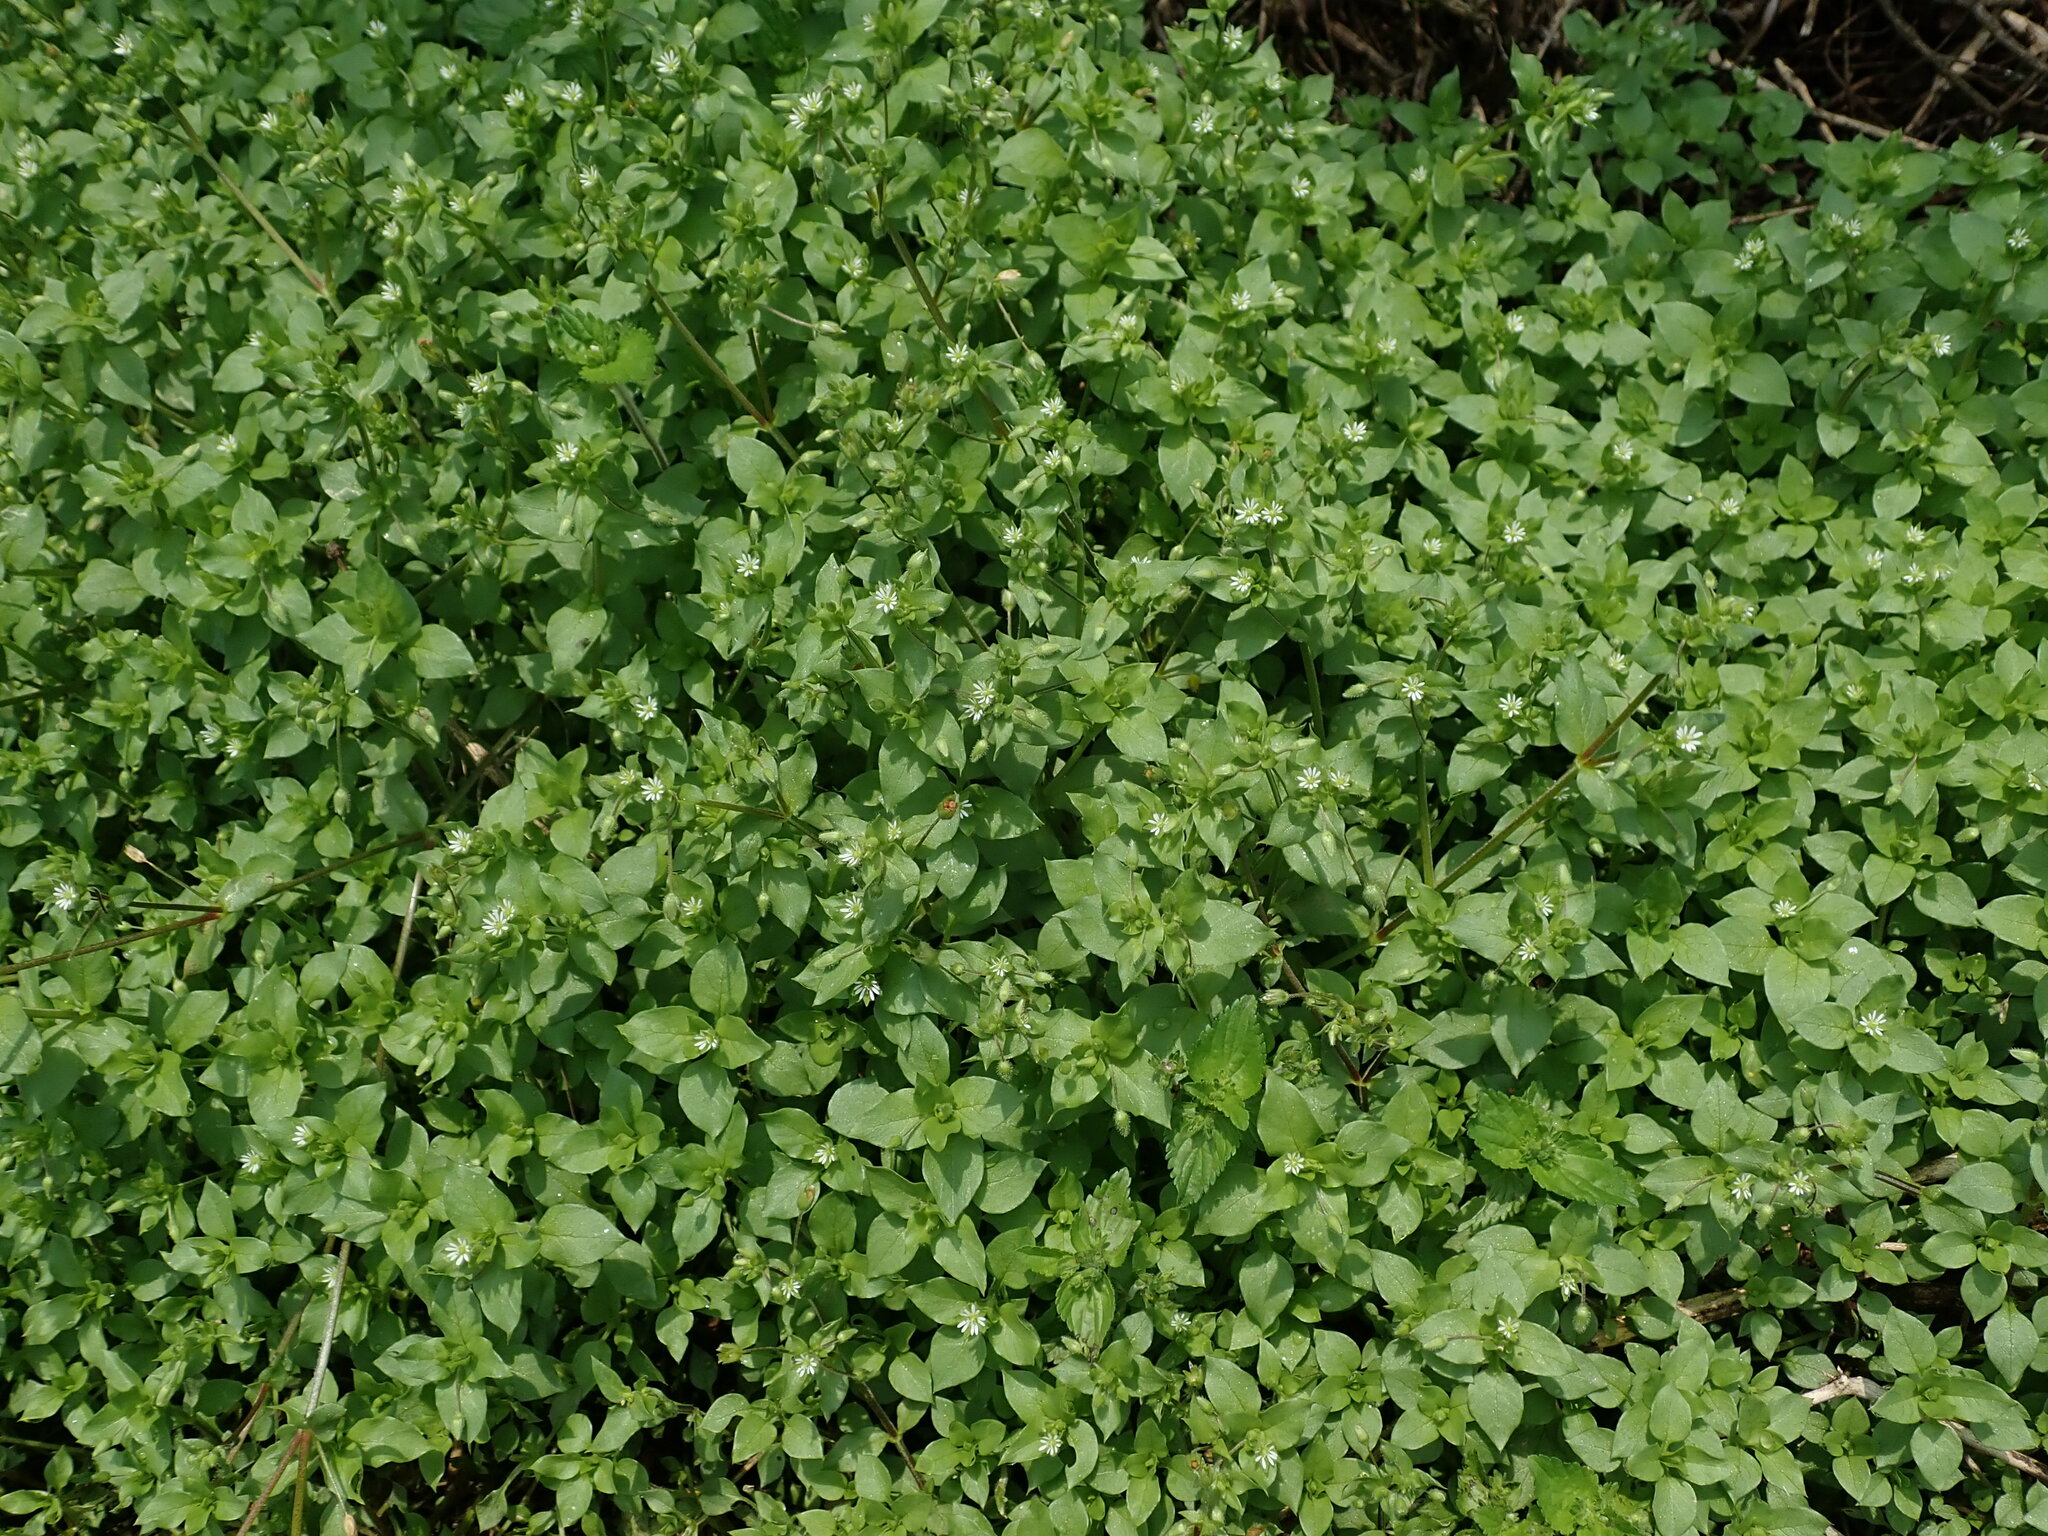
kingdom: Plantae
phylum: Tracheophyta
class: Magnoliopsida
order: Caryophyllales
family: Caryophyllaceae
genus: Stellaria
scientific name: Stellaria media
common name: Common chickweed
